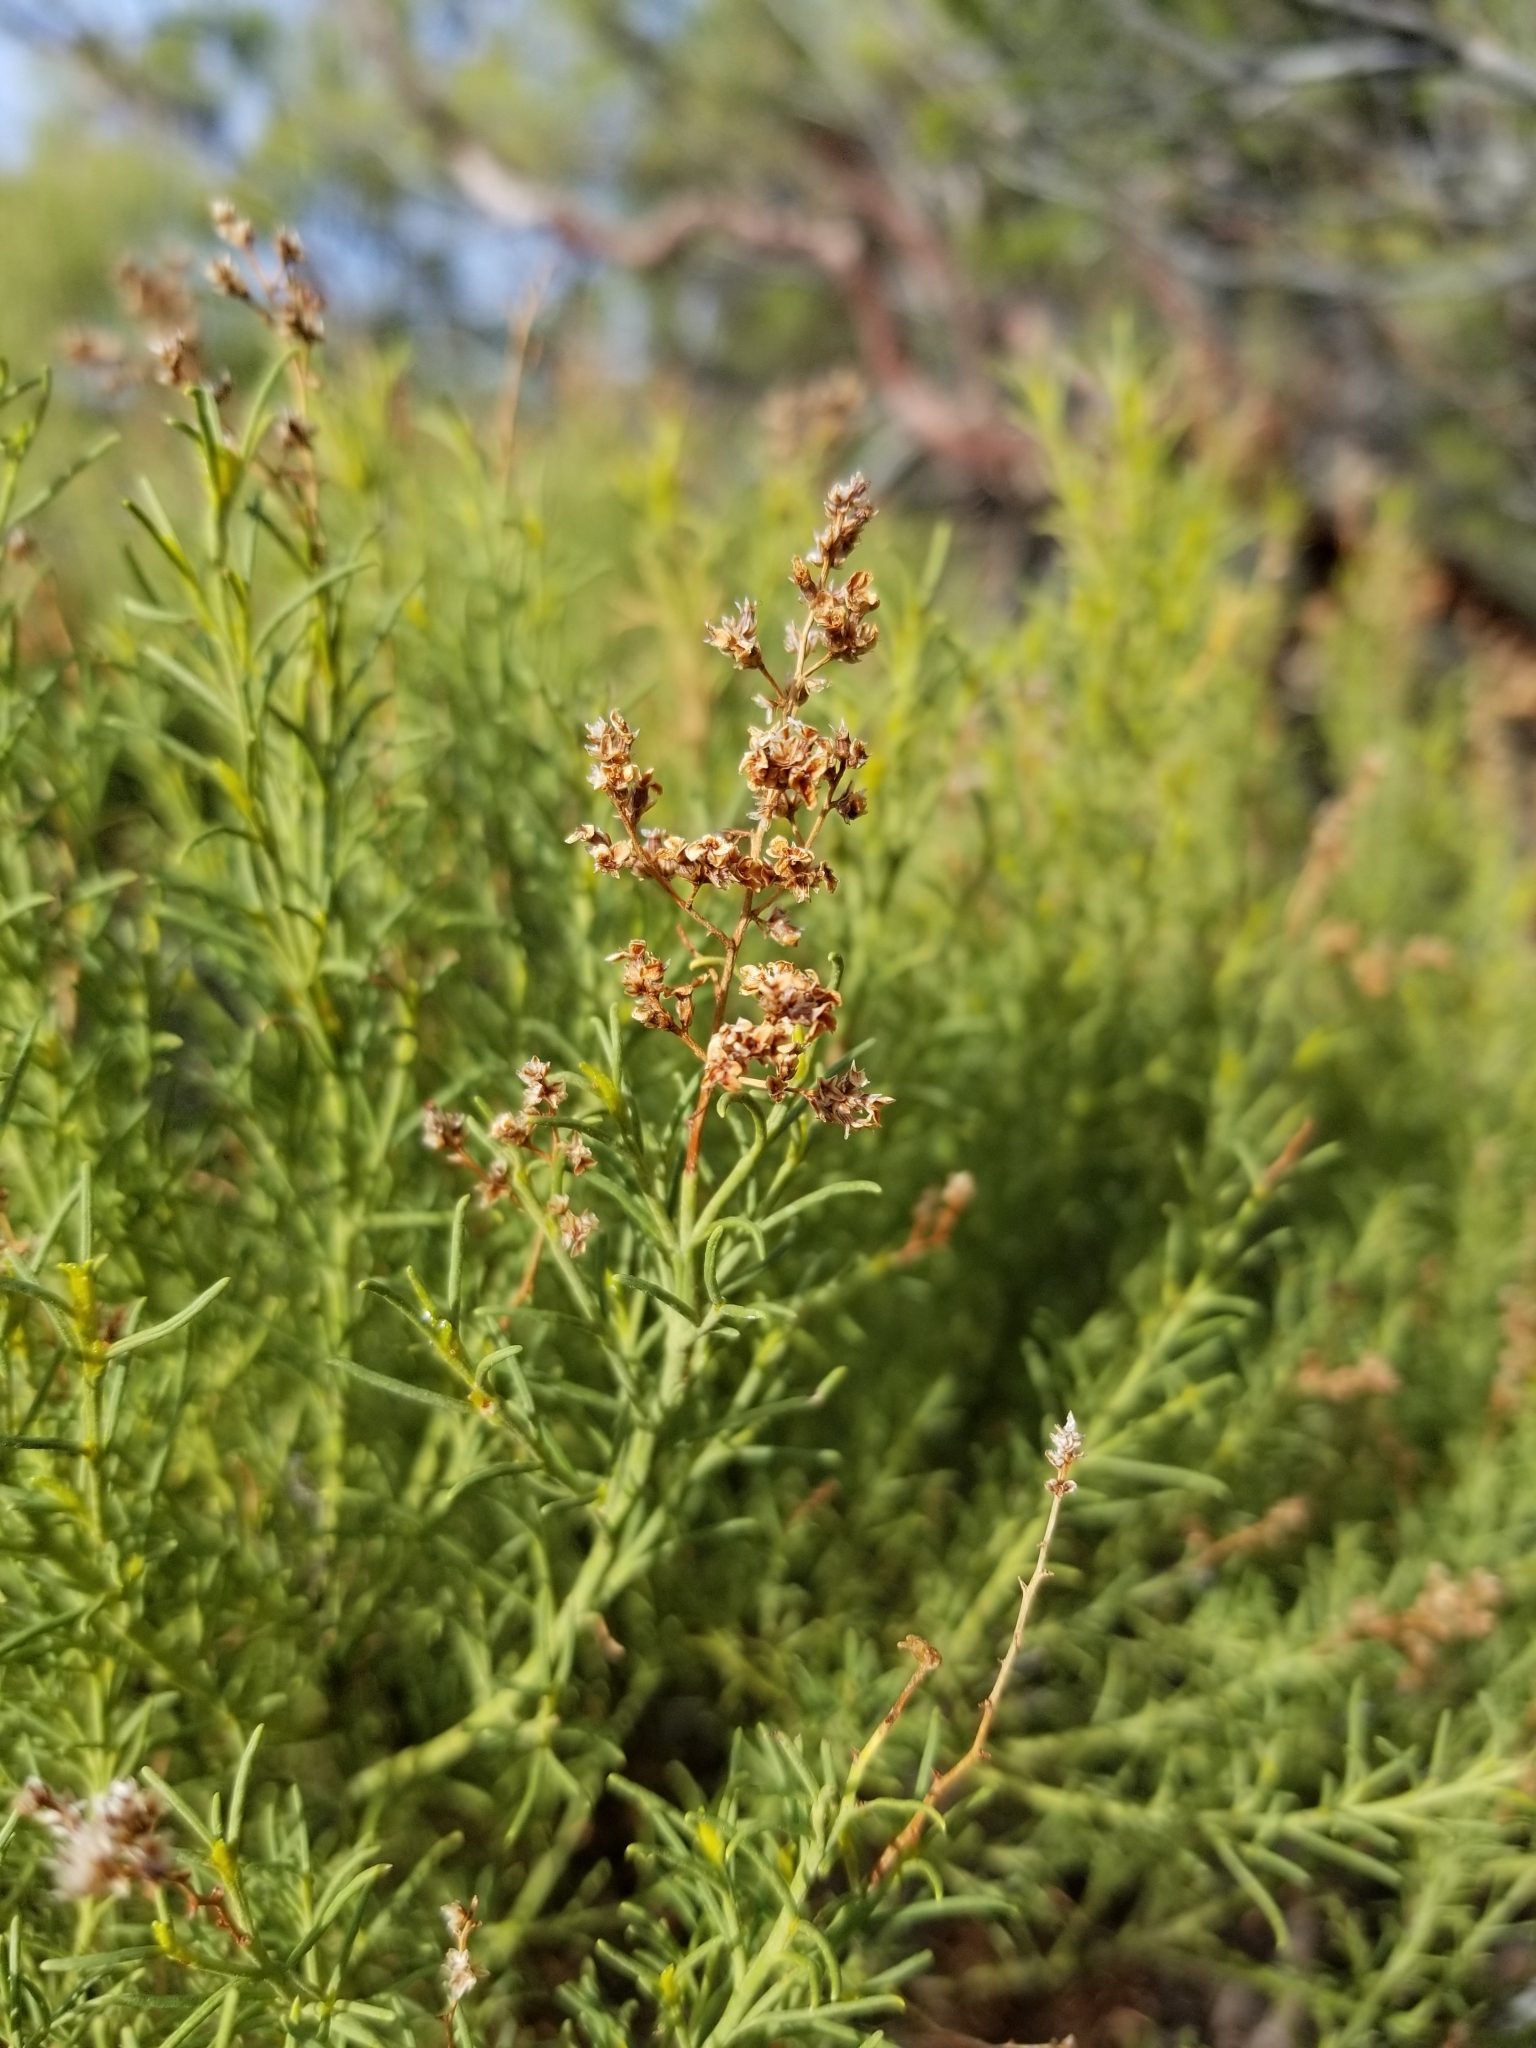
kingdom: Plantae
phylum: Tracheophyta
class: Magnoliopsida
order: Rosales
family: Rosaceae
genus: Adenostoma
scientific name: Adenostoma sparsifolium
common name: Red shank
